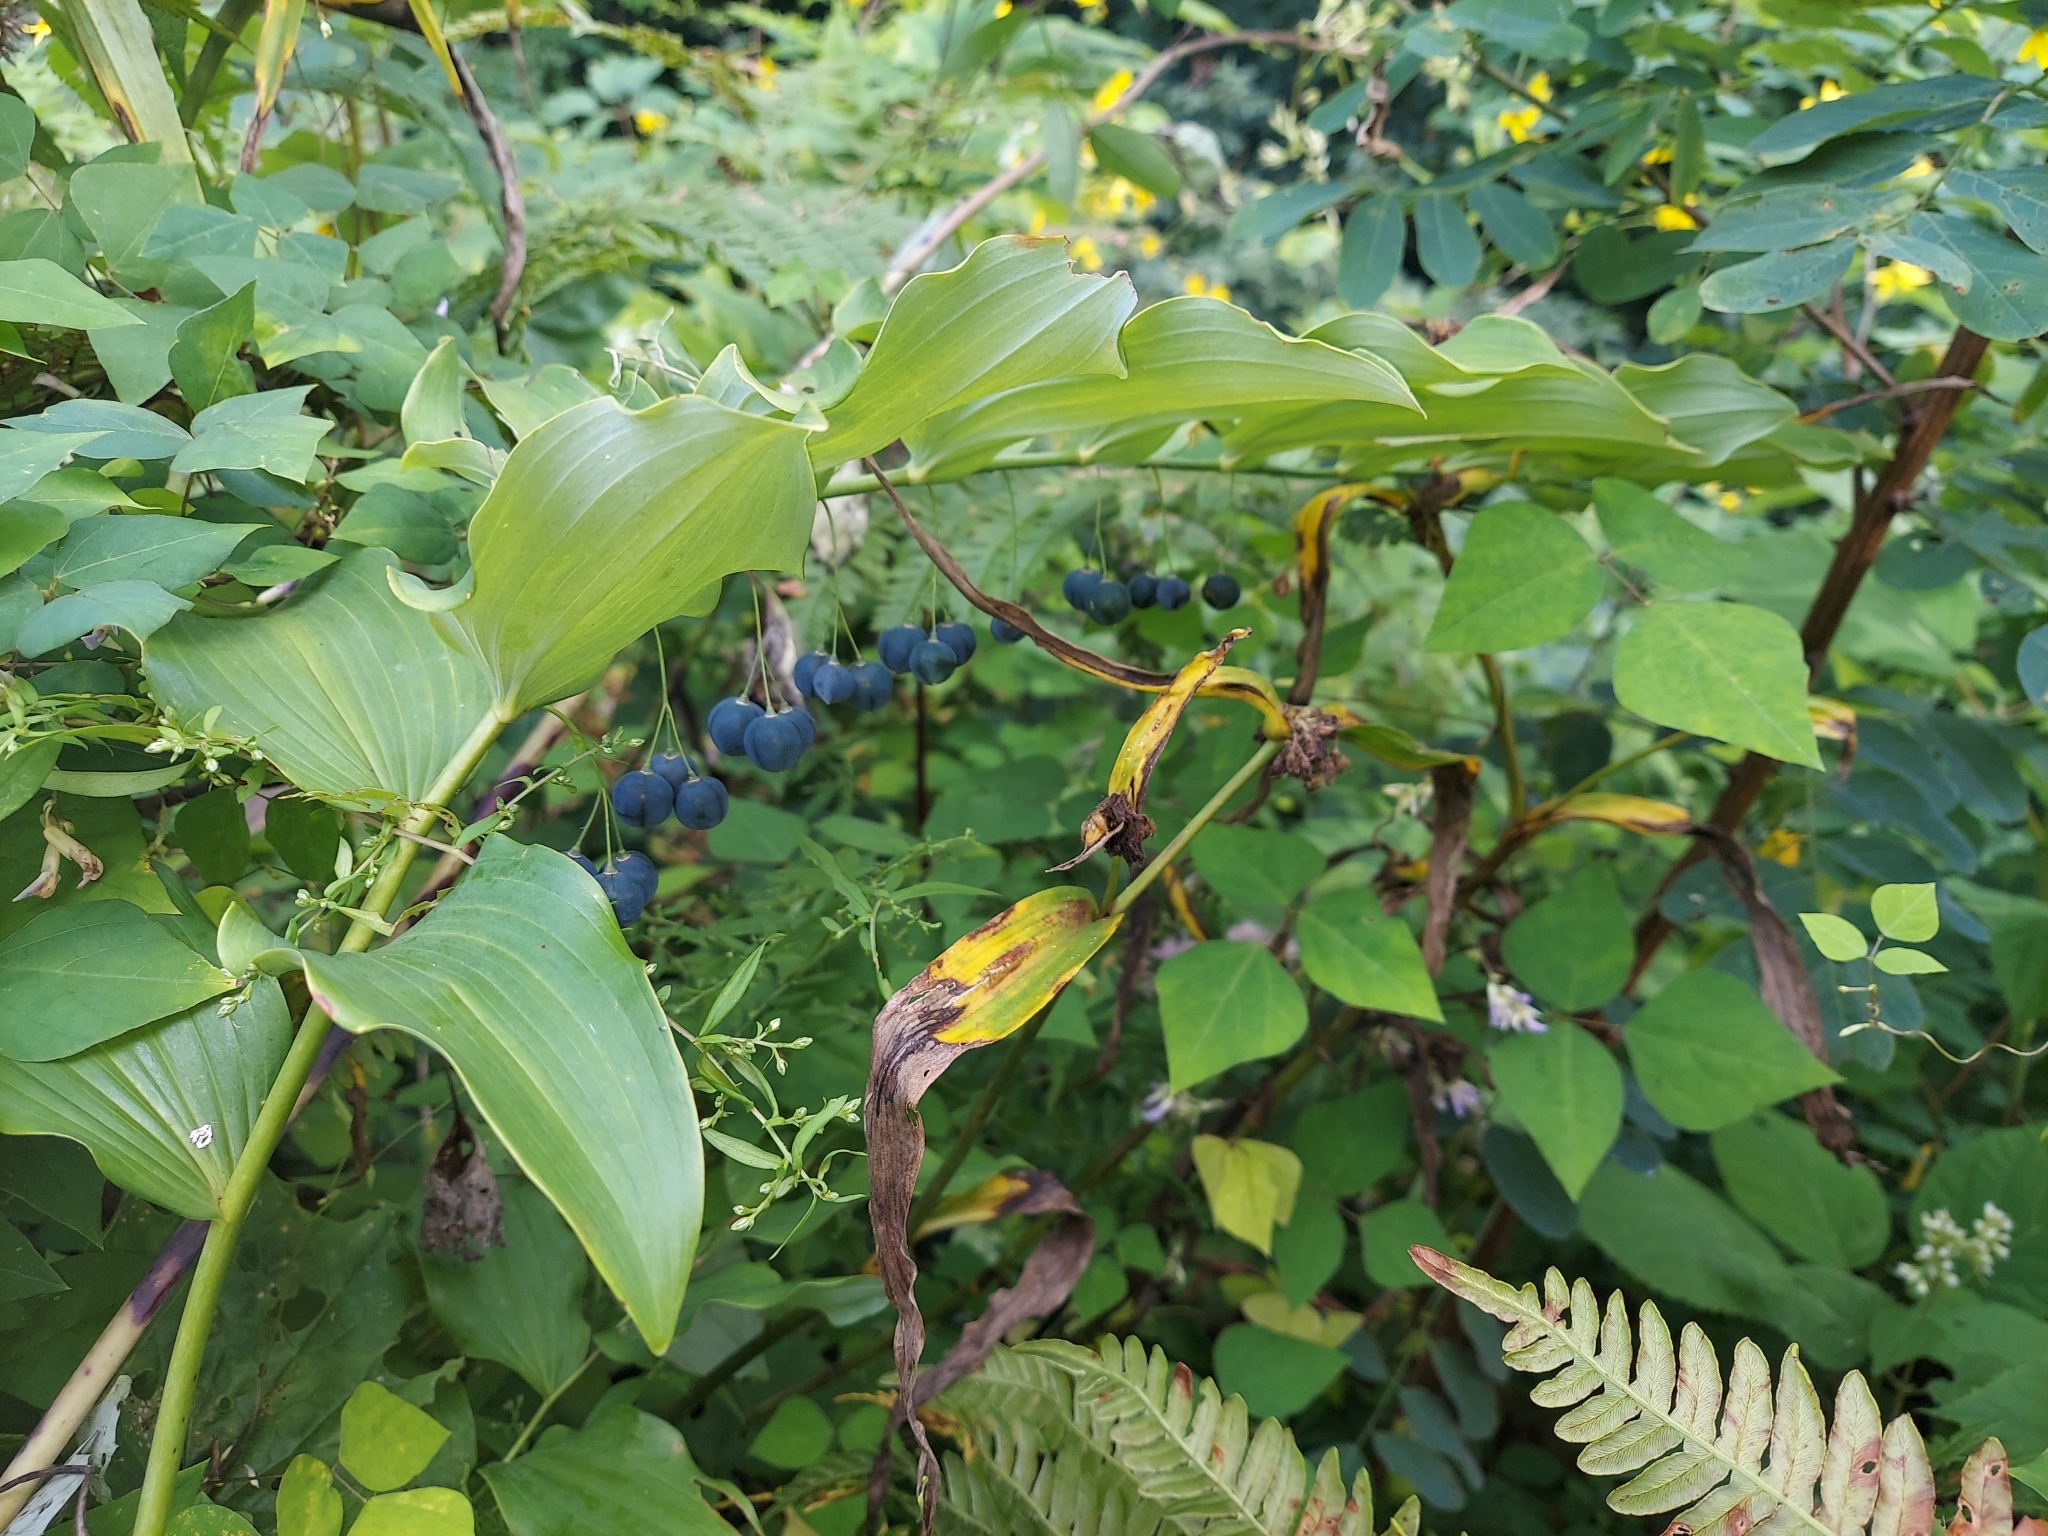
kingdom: Plantae
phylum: Tracheophyta
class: Liliopsida
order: Asparagales
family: Asparagaceae
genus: Polygonatum
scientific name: Polygonatum biflorum
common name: American solomon's-seal
